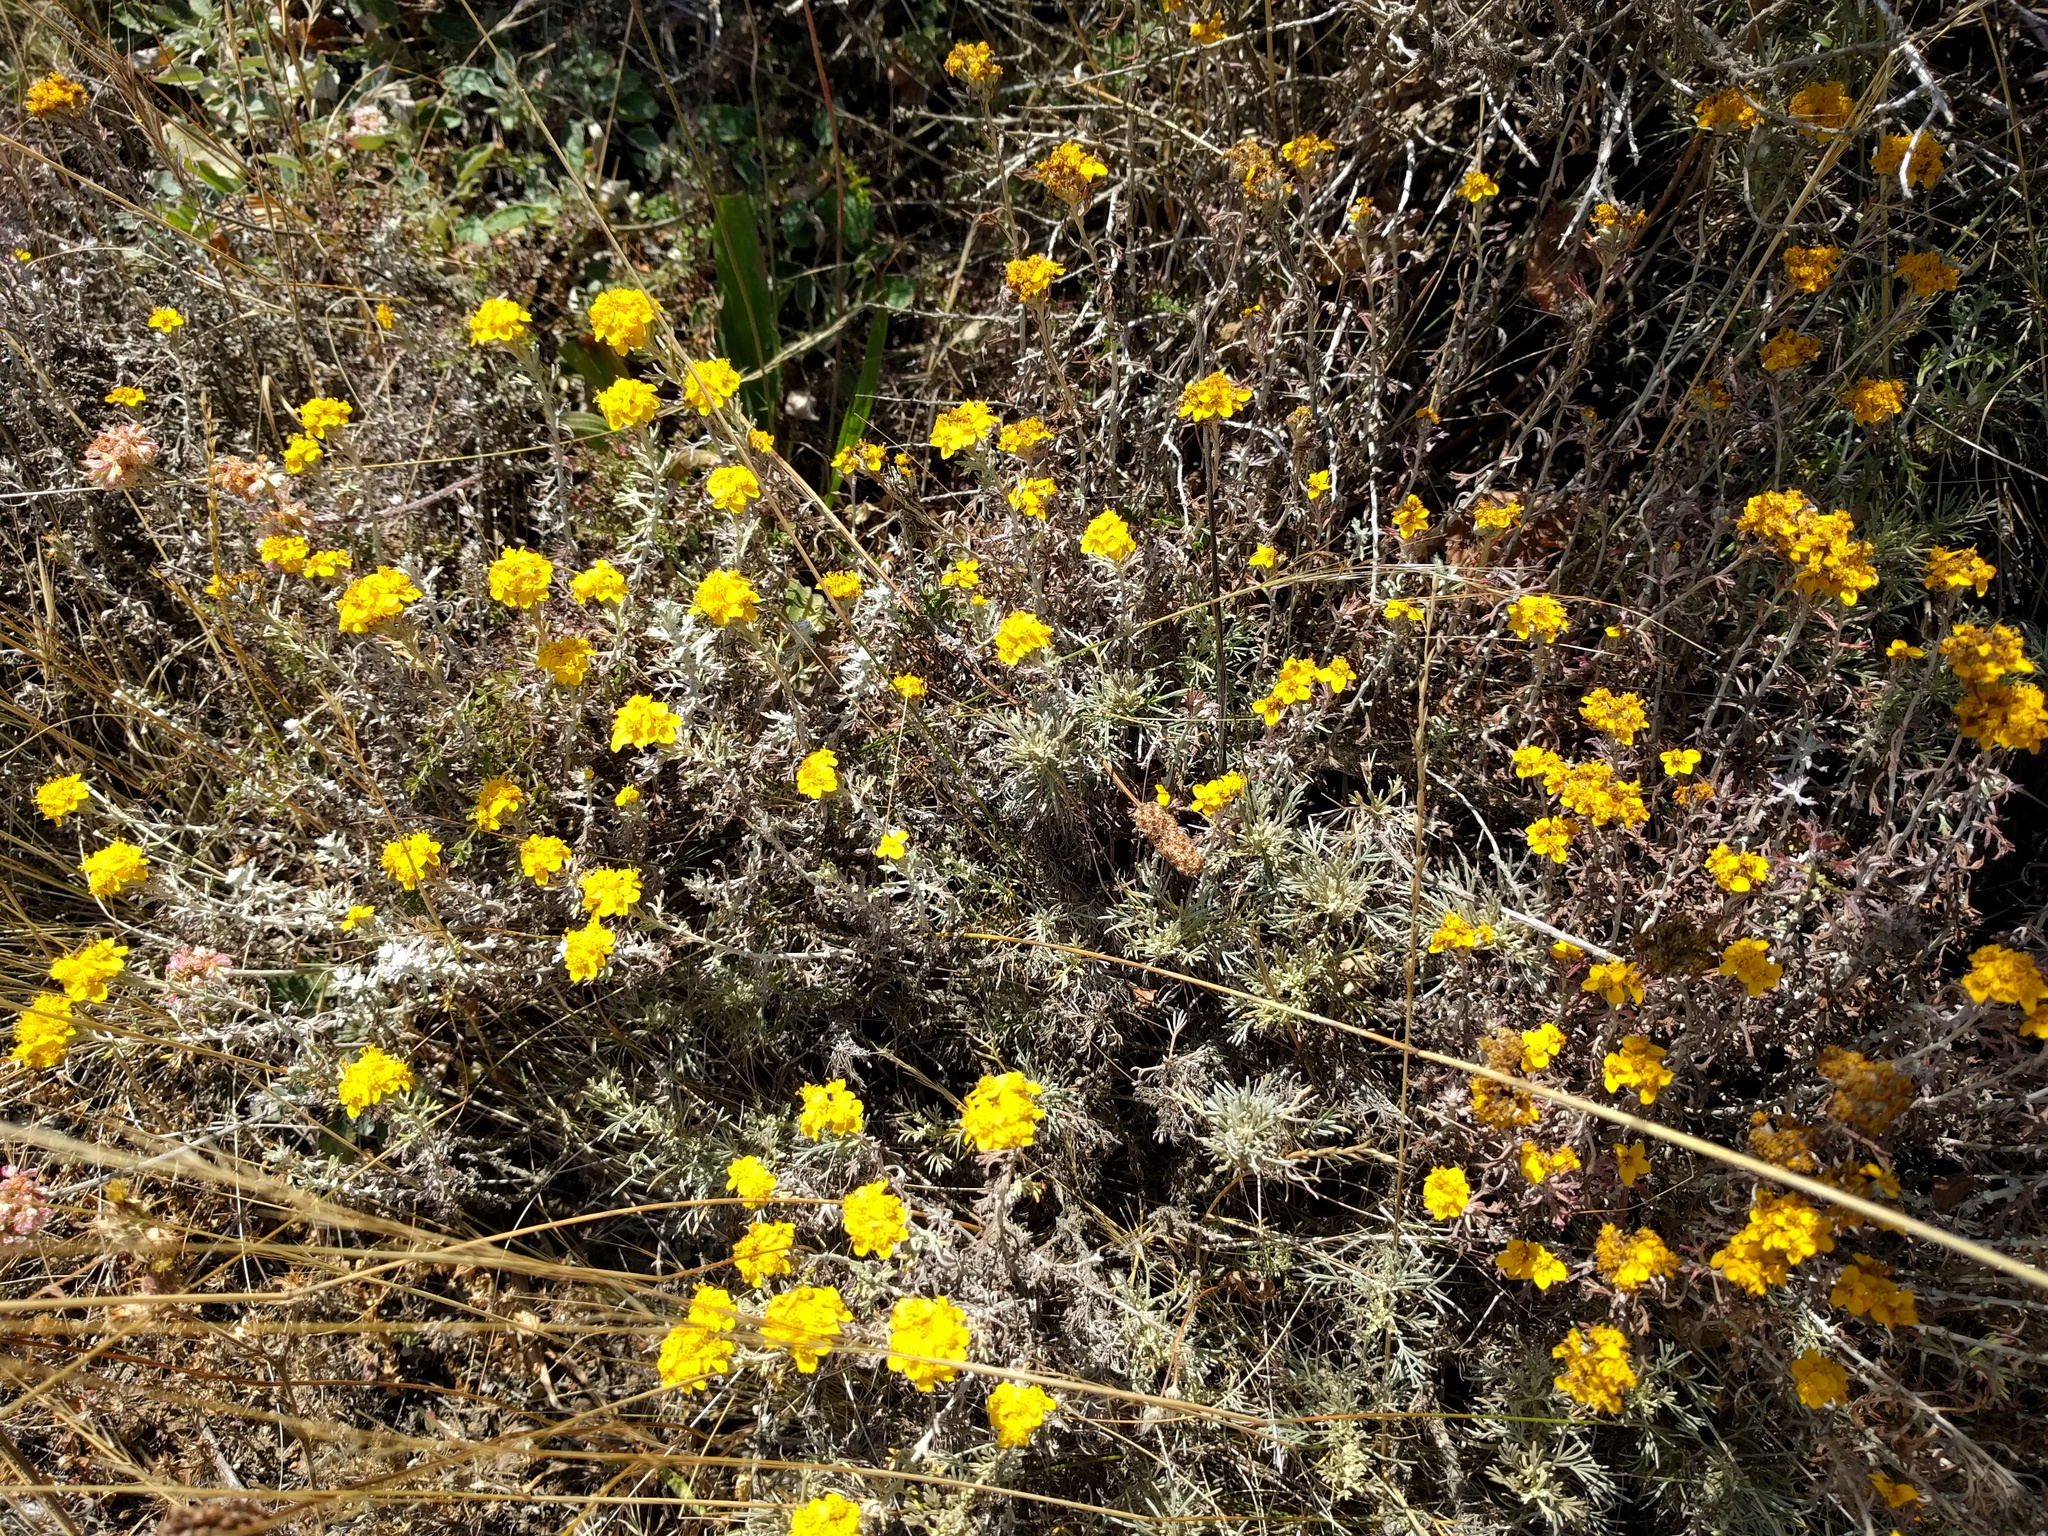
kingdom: Plantae
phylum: Tracheophyta
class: Magnoliopsida
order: Asterales
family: Asteraceae
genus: Eriophyllum
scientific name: Eriophyllum staechadifolium
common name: Lizardtail
